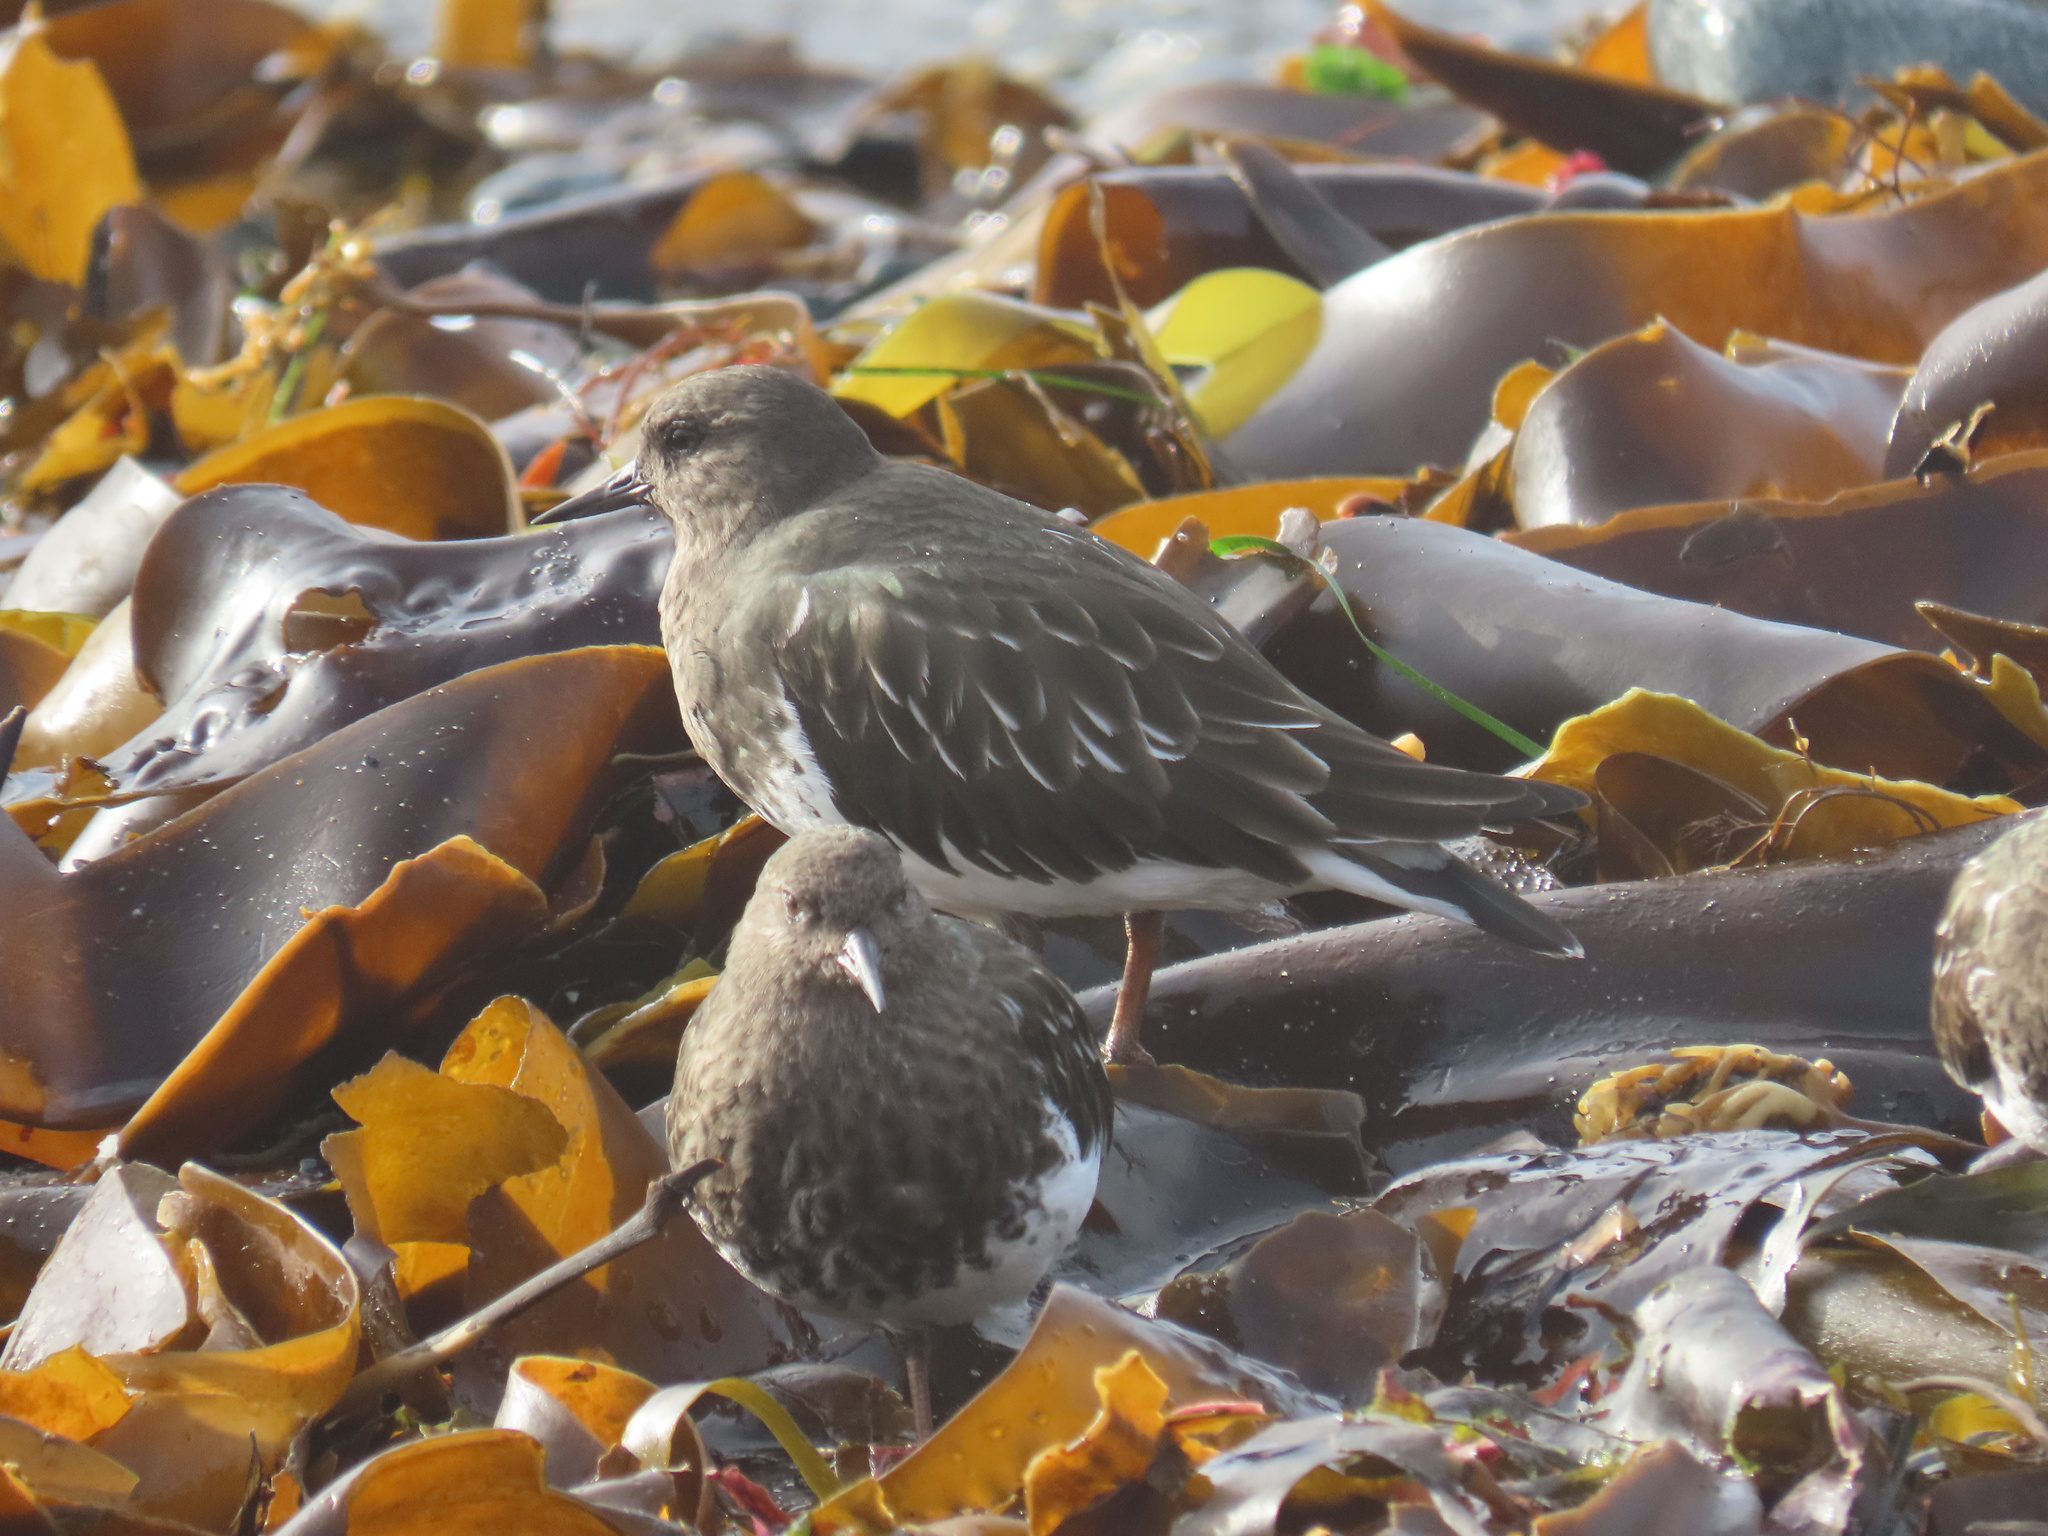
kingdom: Animalia
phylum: Chordata
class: Aves
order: Charadriiformes
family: Scolopacidae
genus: Arenaria
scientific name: Arenaria melanocephala
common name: Black turnstone
